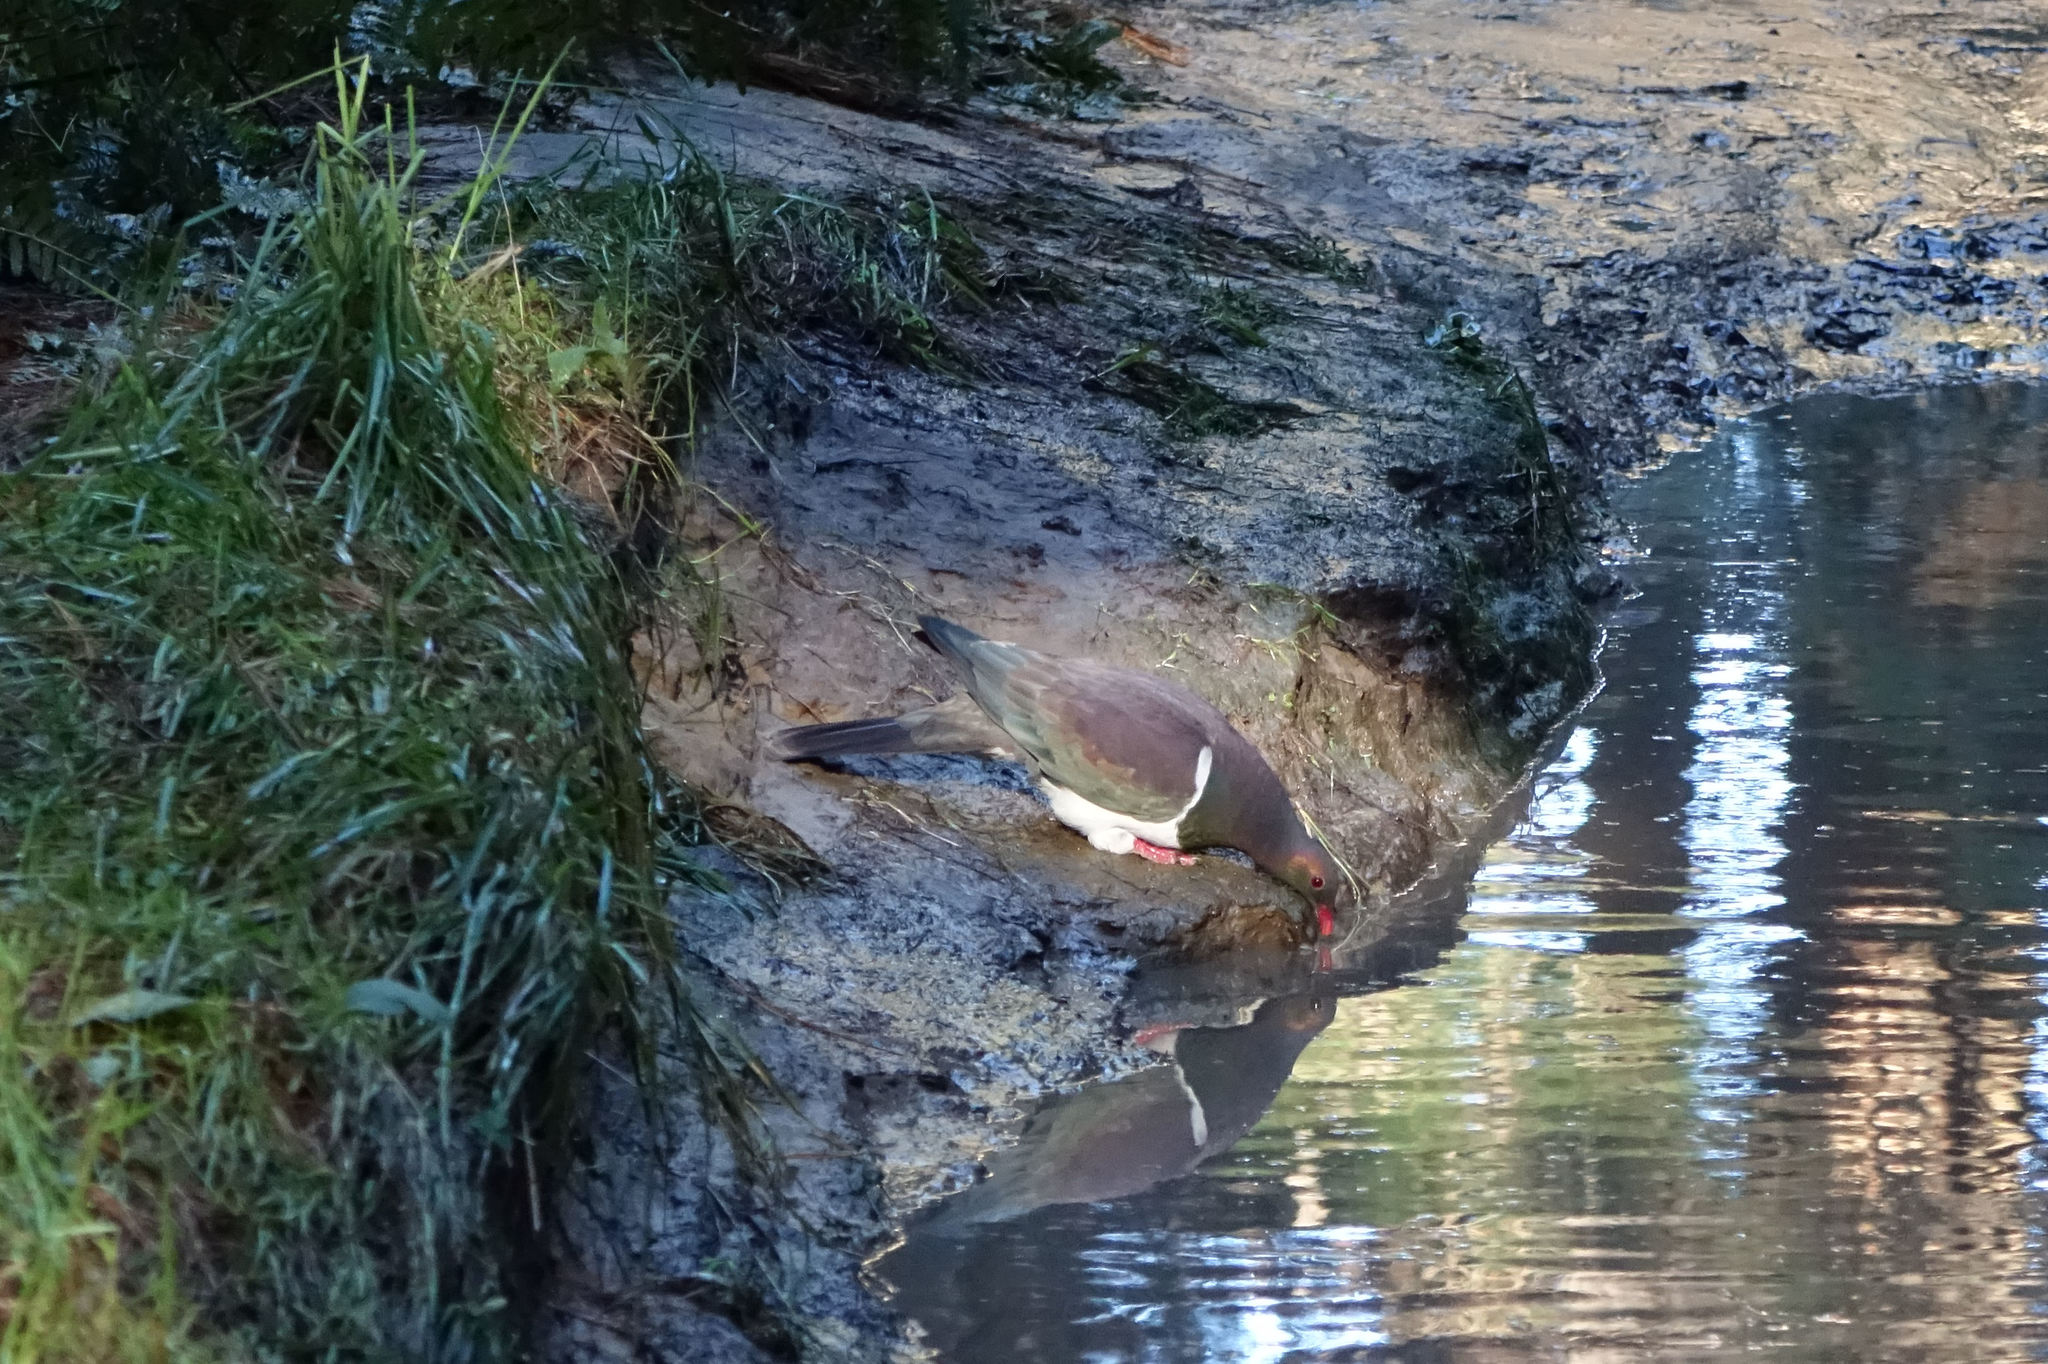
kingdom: Animalia
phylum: Chordata
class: Aves
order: Columbiformes
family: Columbidae
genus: Hemiphaga
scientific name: Hemiphaga novaeseelandiae
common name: New zealand pigeon
